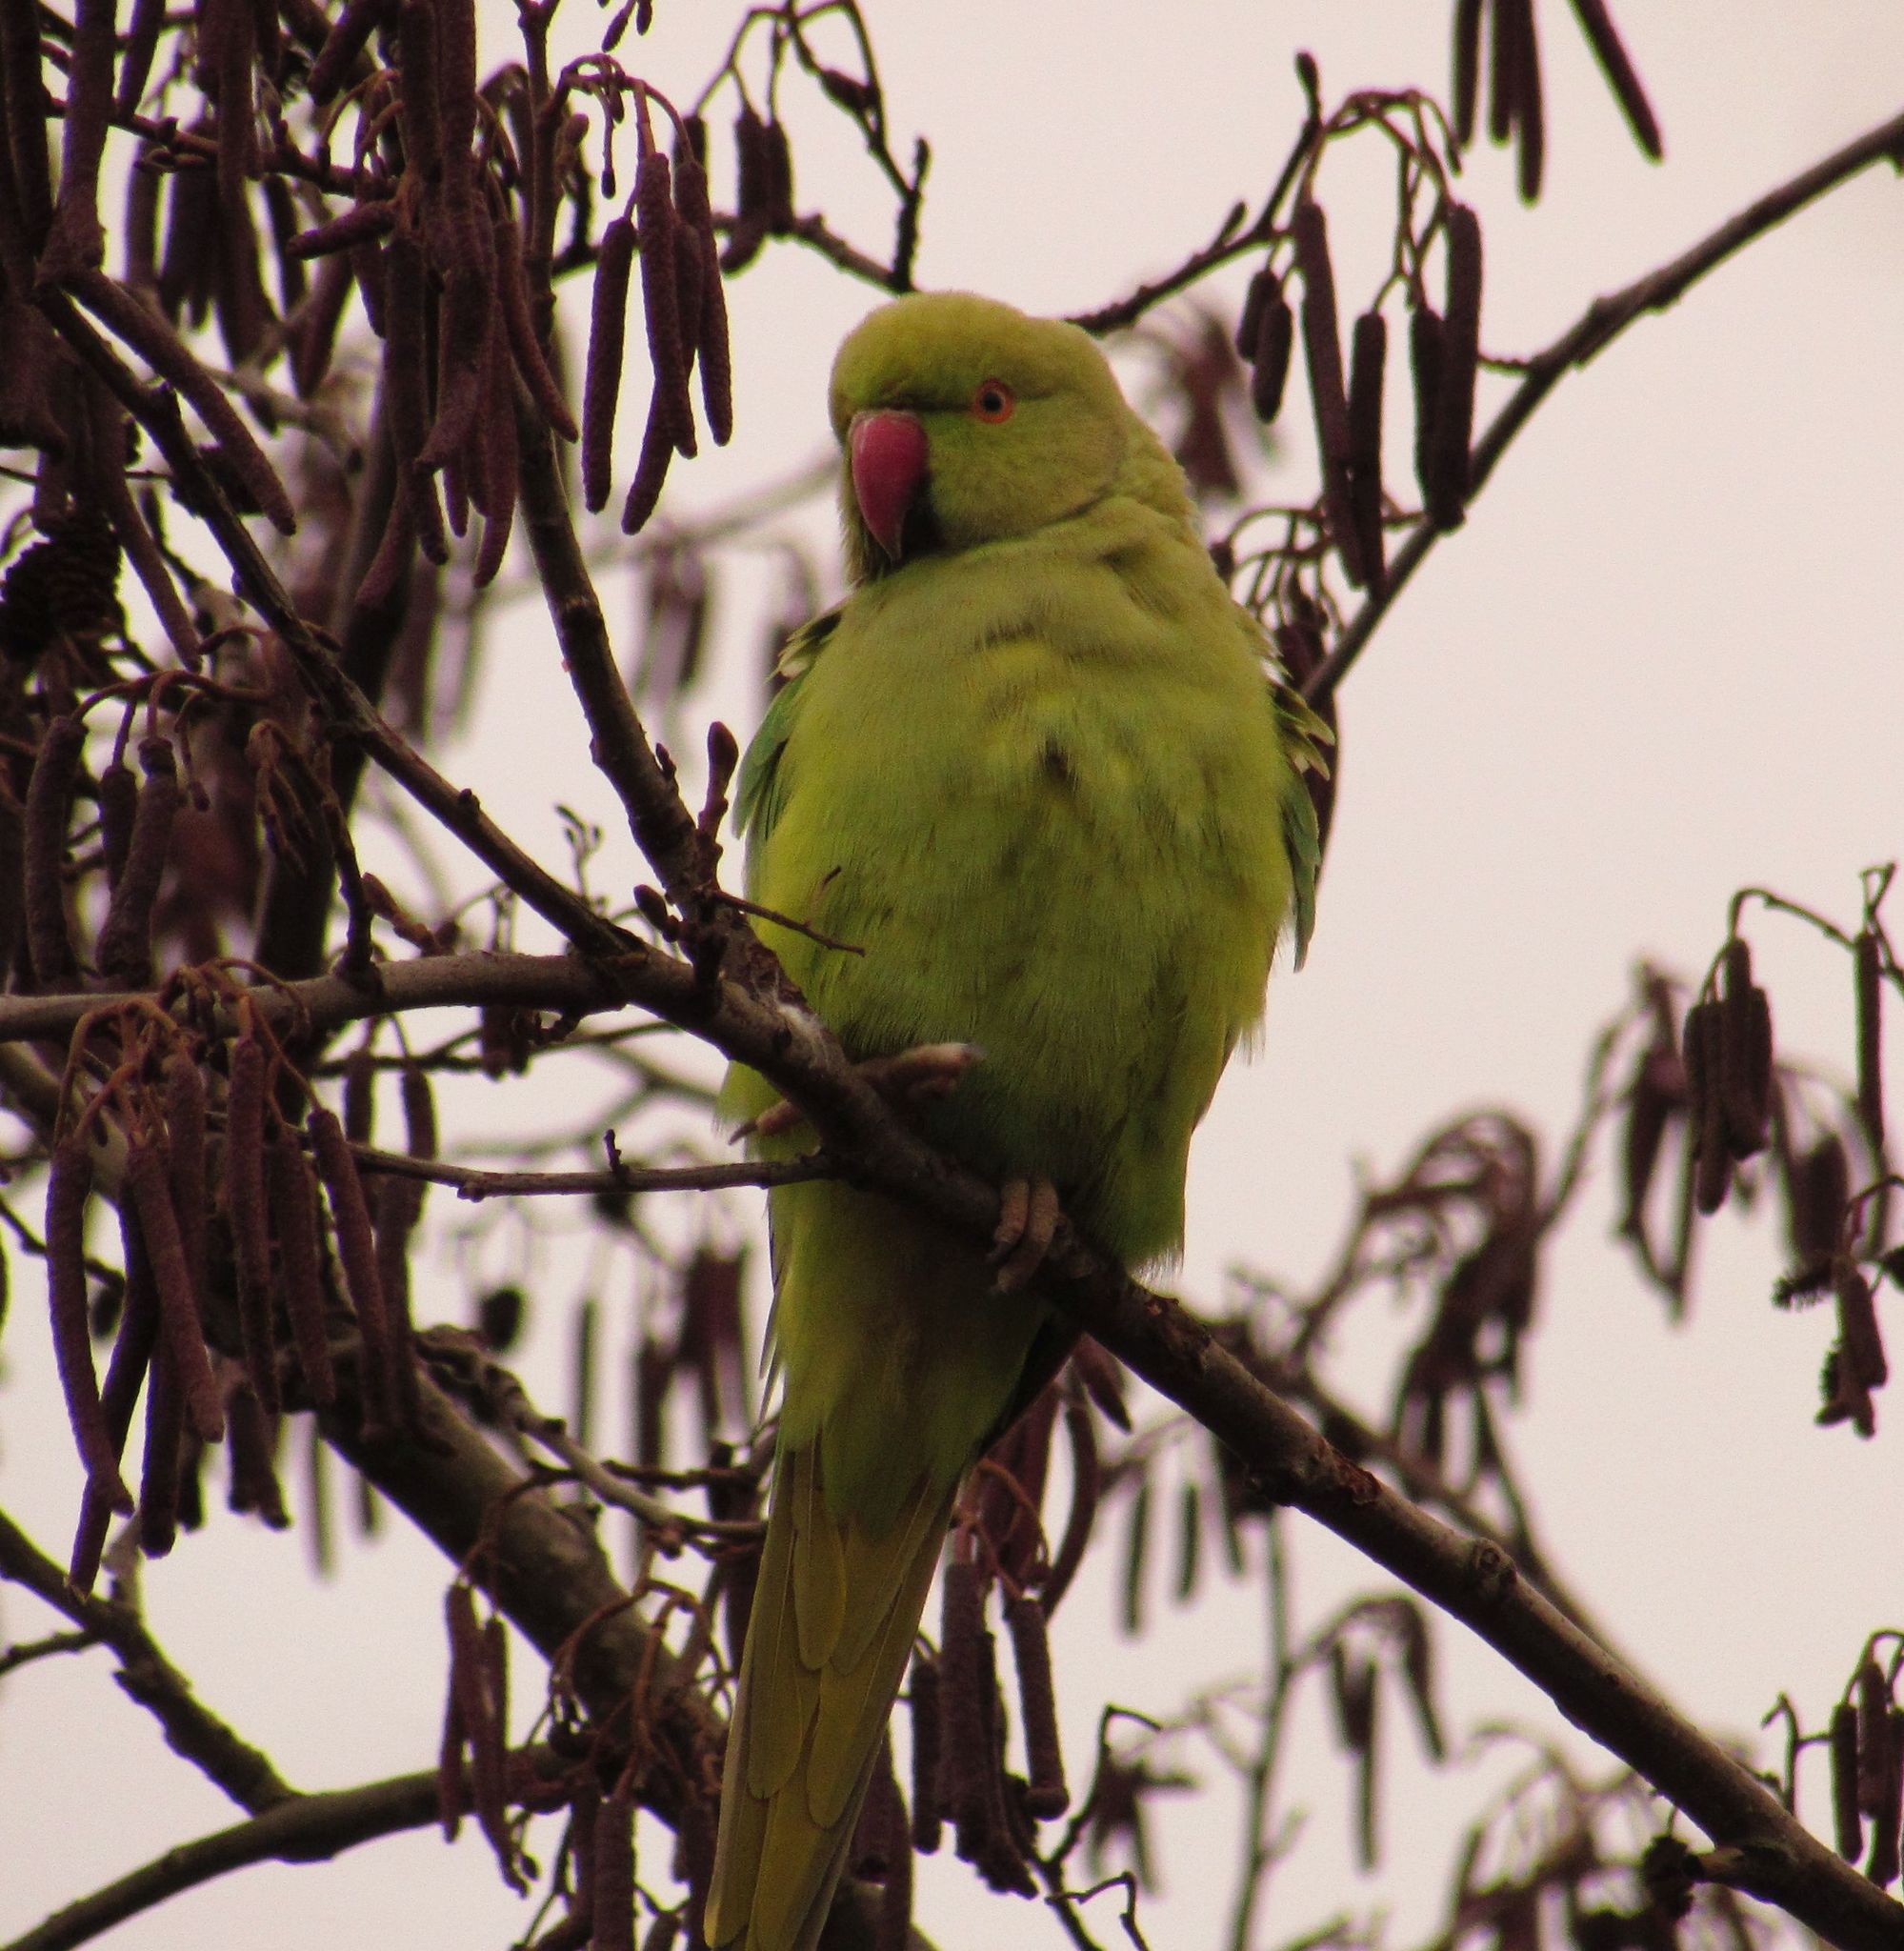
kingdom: Animalia
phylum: Chordata
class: Aves
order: Psittaciformes
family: Psittacidae
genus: Psittacula
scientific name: Psittacula krameri
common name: Rose-ringed parakeet
